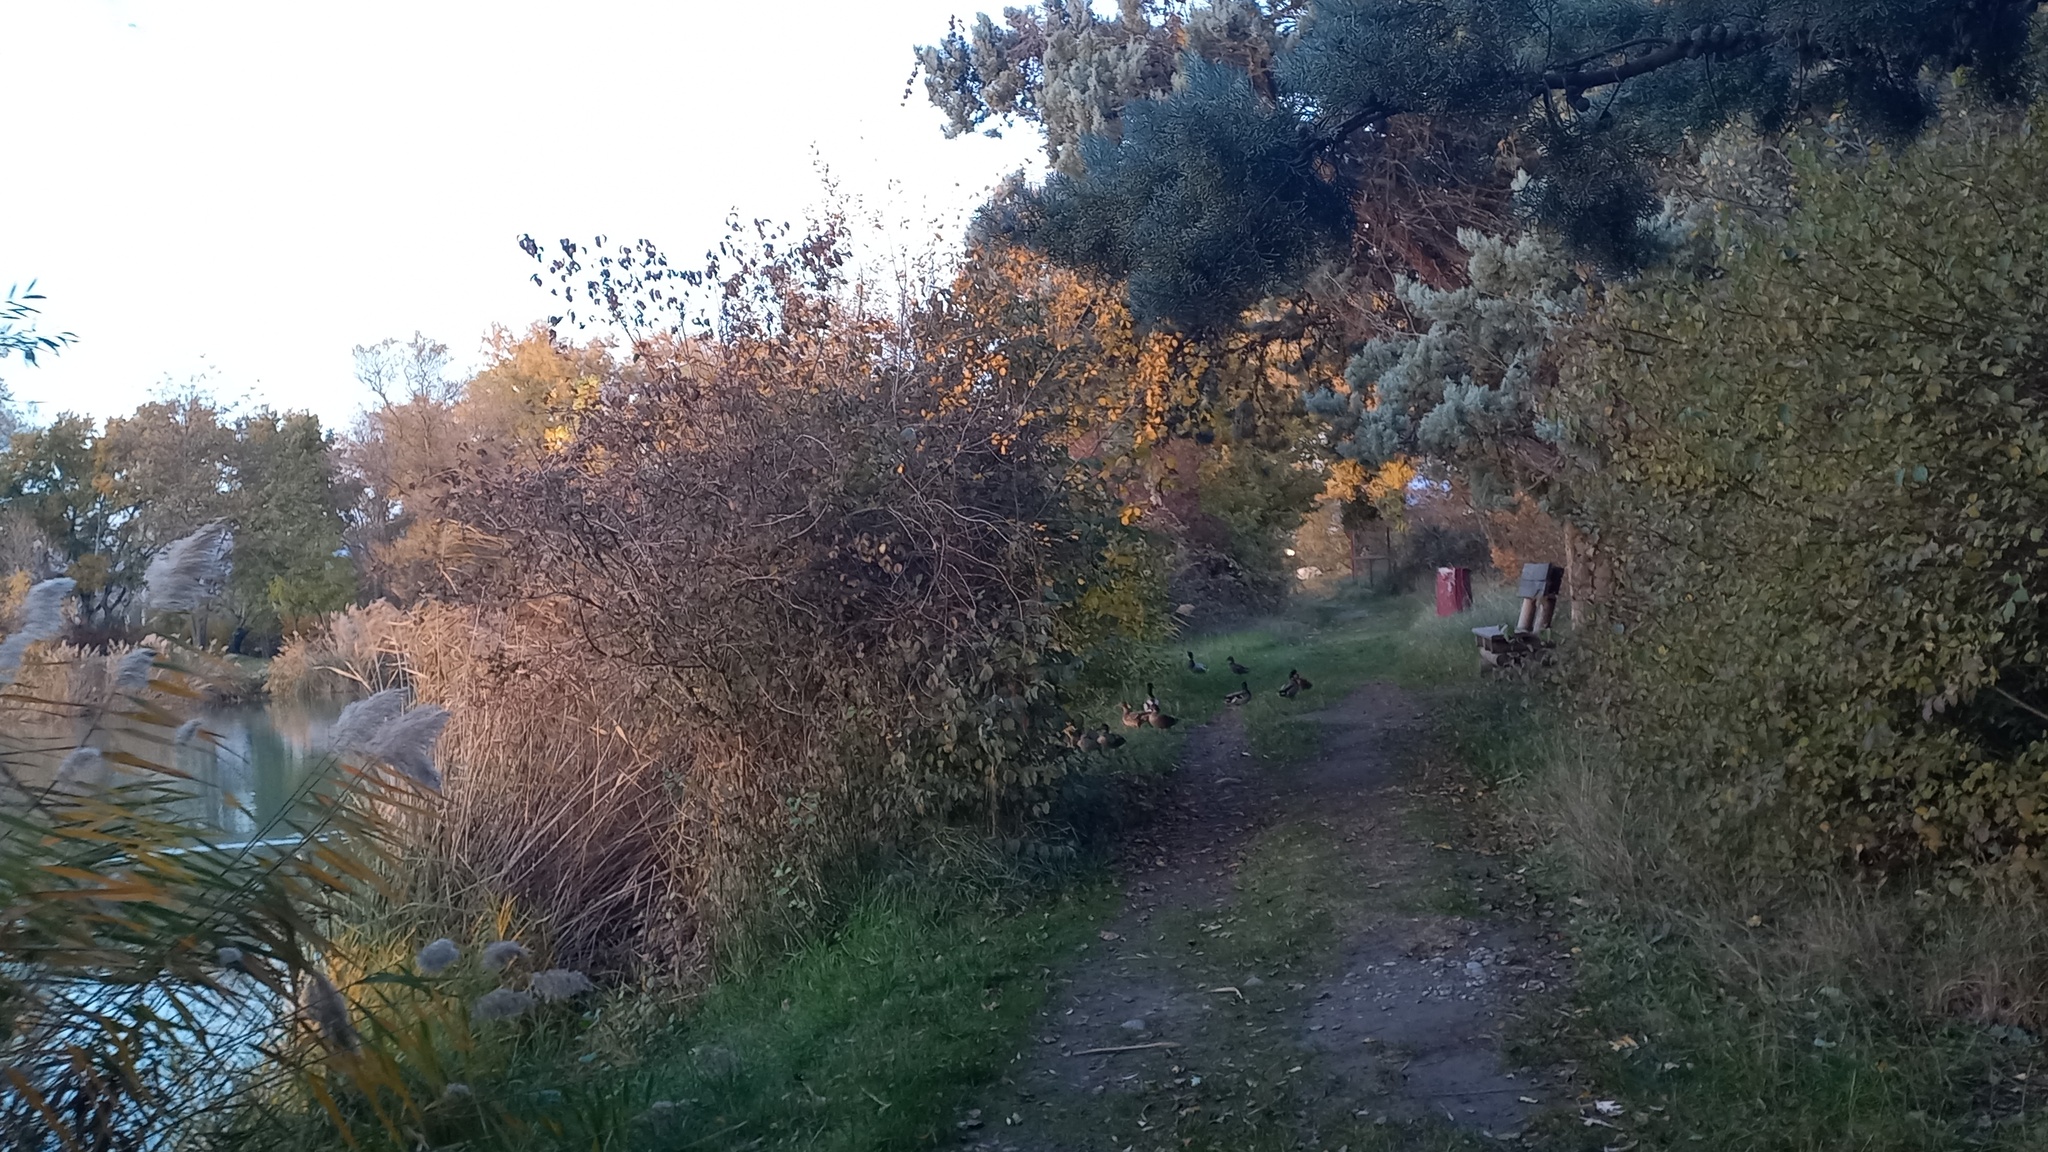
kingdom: Animalia
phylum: Chordata
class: Aves
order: Anseriformes
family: Anatidae
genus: Anas
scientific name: Anas platyrhynchos
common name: Mallard
